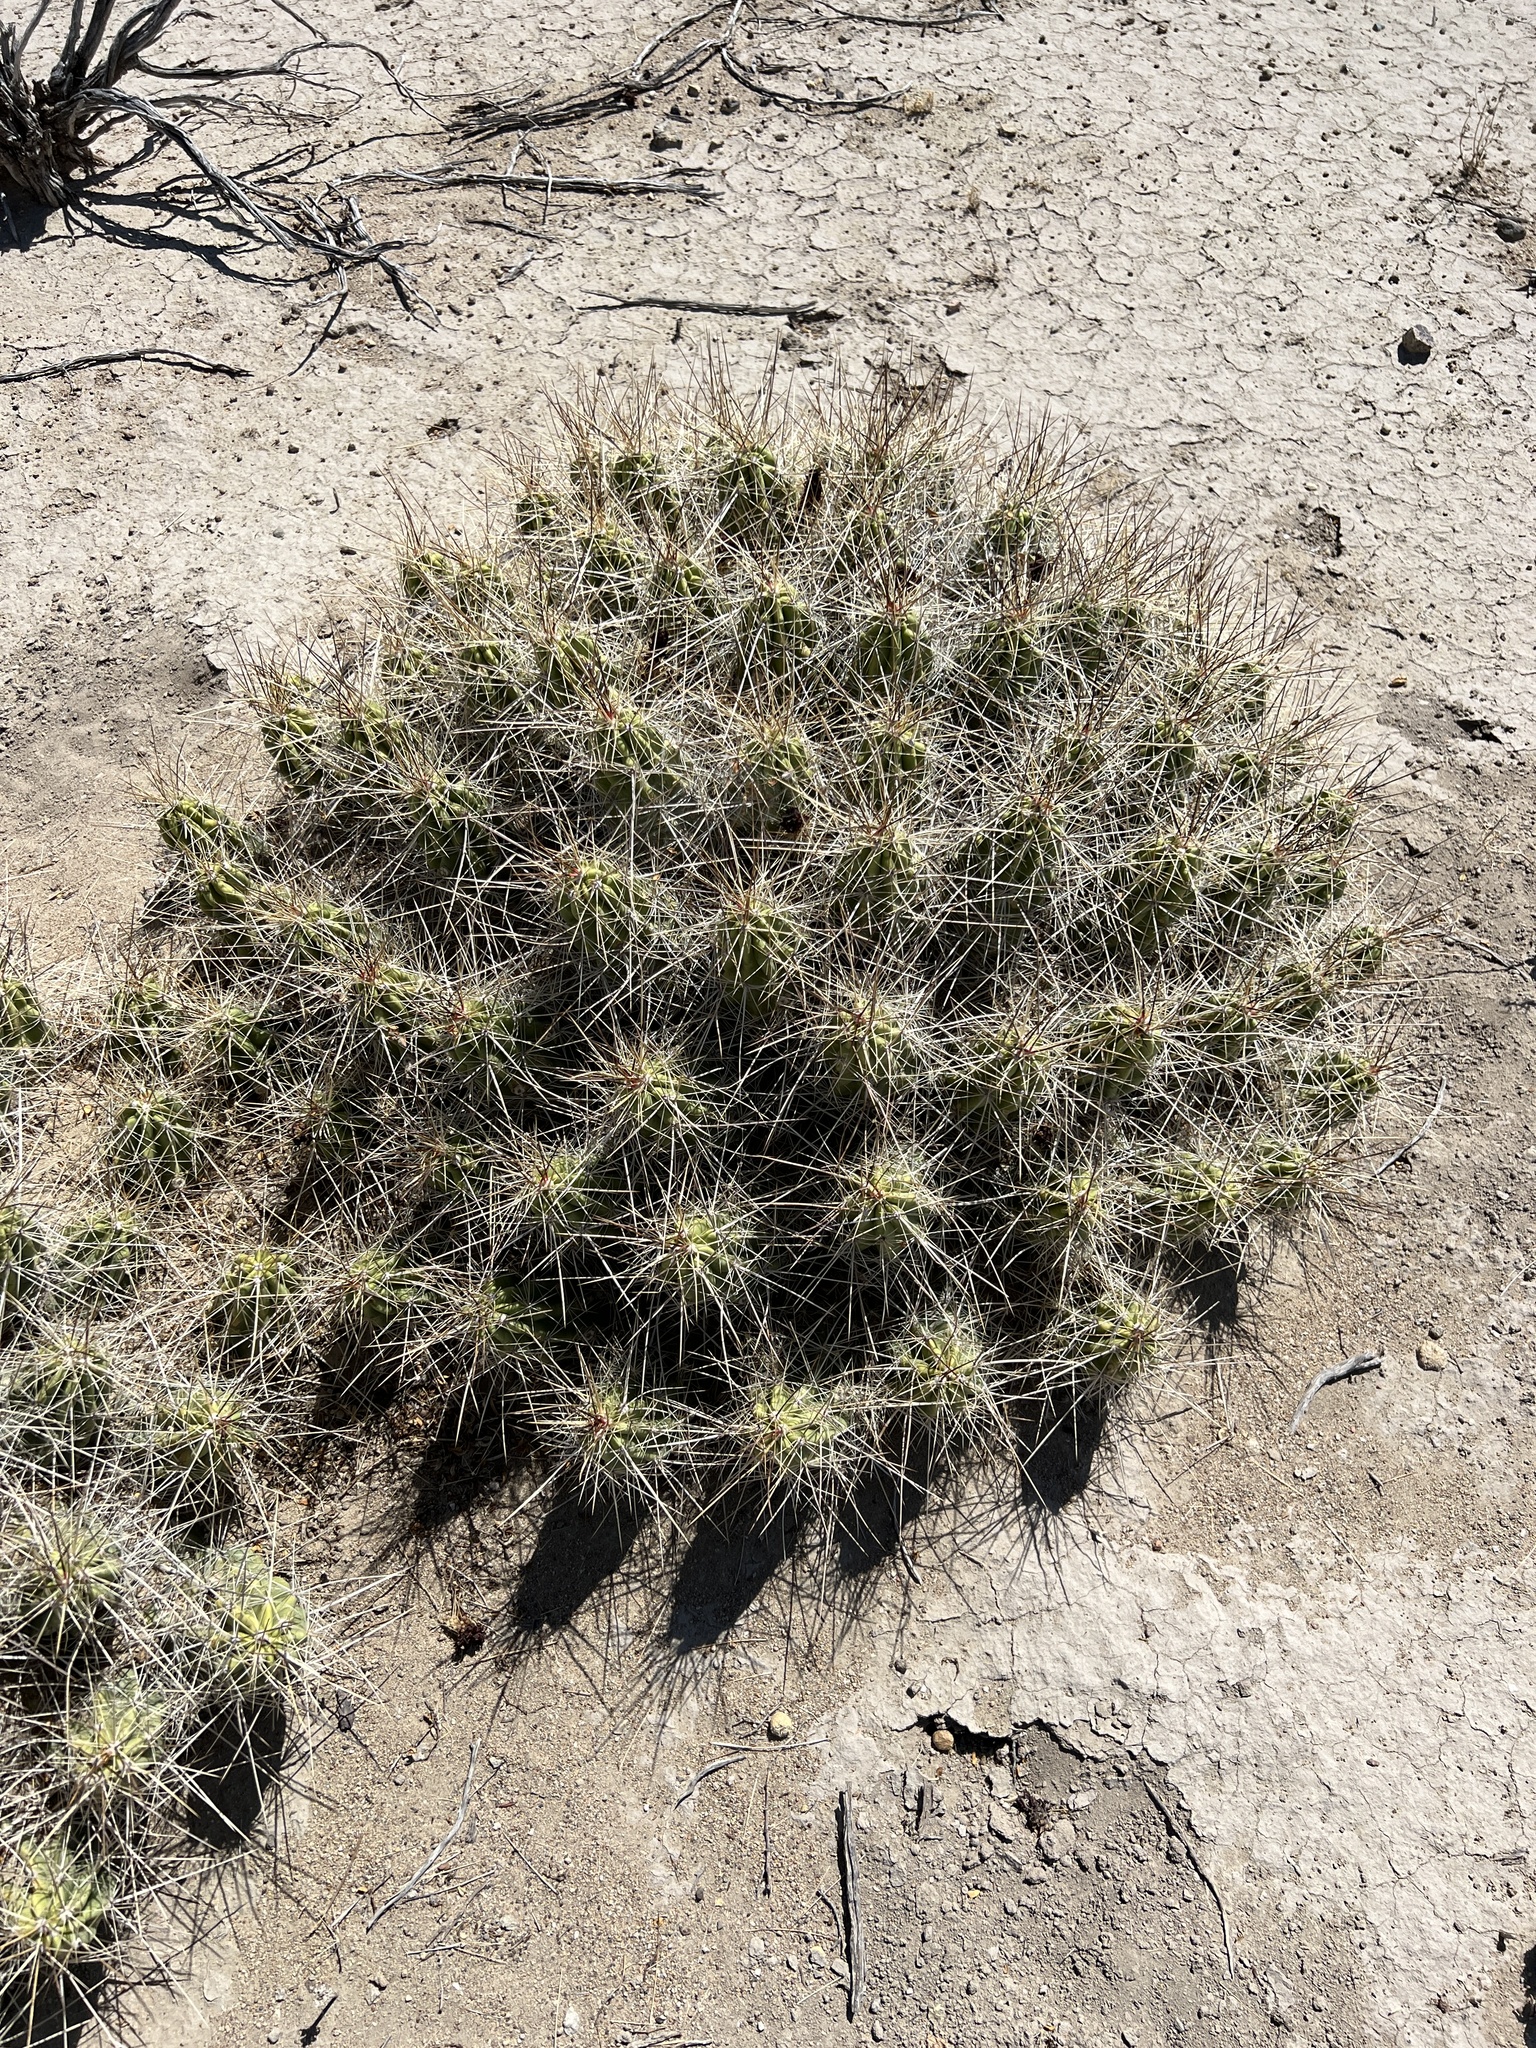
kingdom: Plantae
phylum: Tracheophyta
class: Magnoliopsida
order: Caryophyllales
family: Cactaceae
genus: Echinocereus
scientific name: Echinocereus enneacanthus
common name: Pitaya
